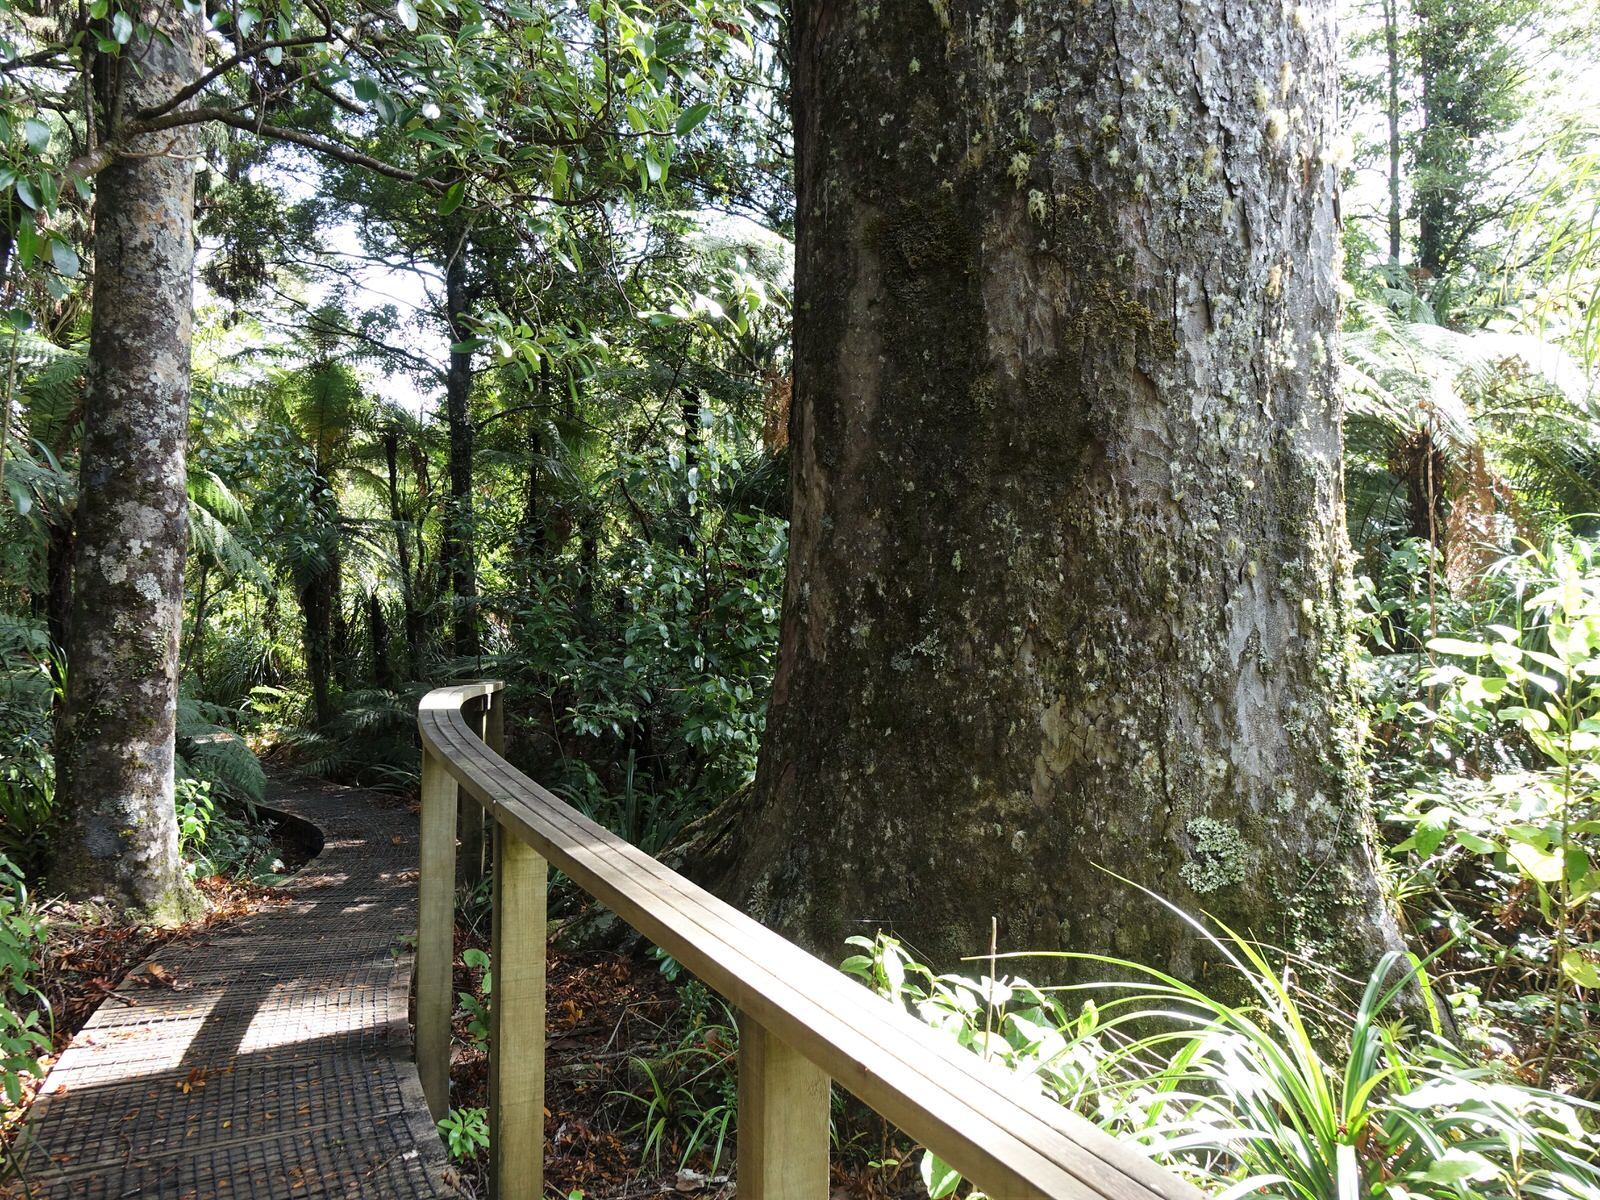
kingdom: Plantae
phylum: Tracheophyta
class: Magnoliopsida
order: Myrtales
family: Myrtaceae
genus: Metrosideros
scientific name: Metrosideros robusta
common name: Northern rata
